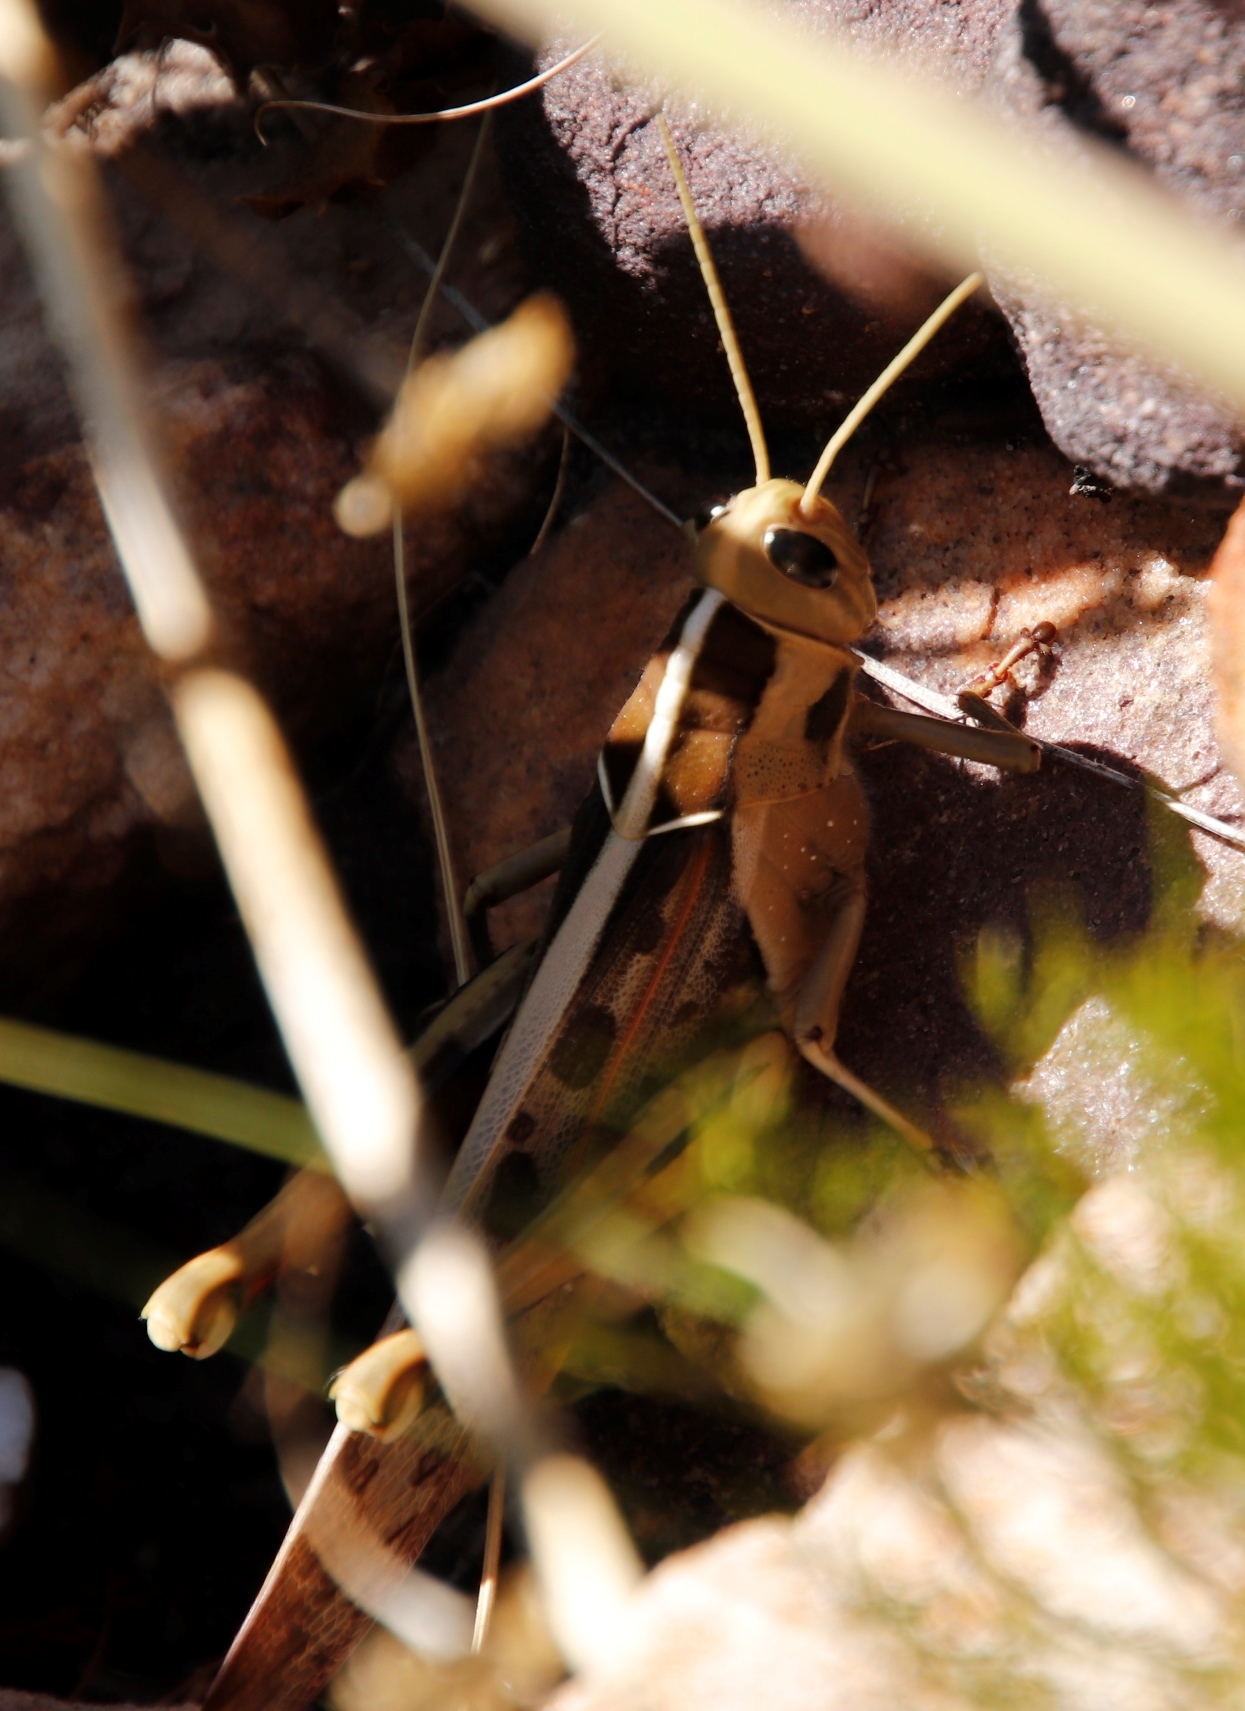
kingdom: Animalia
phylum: Arthropoda
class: Insecta
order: Orthoptera
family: Acrididae
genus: Acanthacris
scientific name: Acanthacris ruficornis
